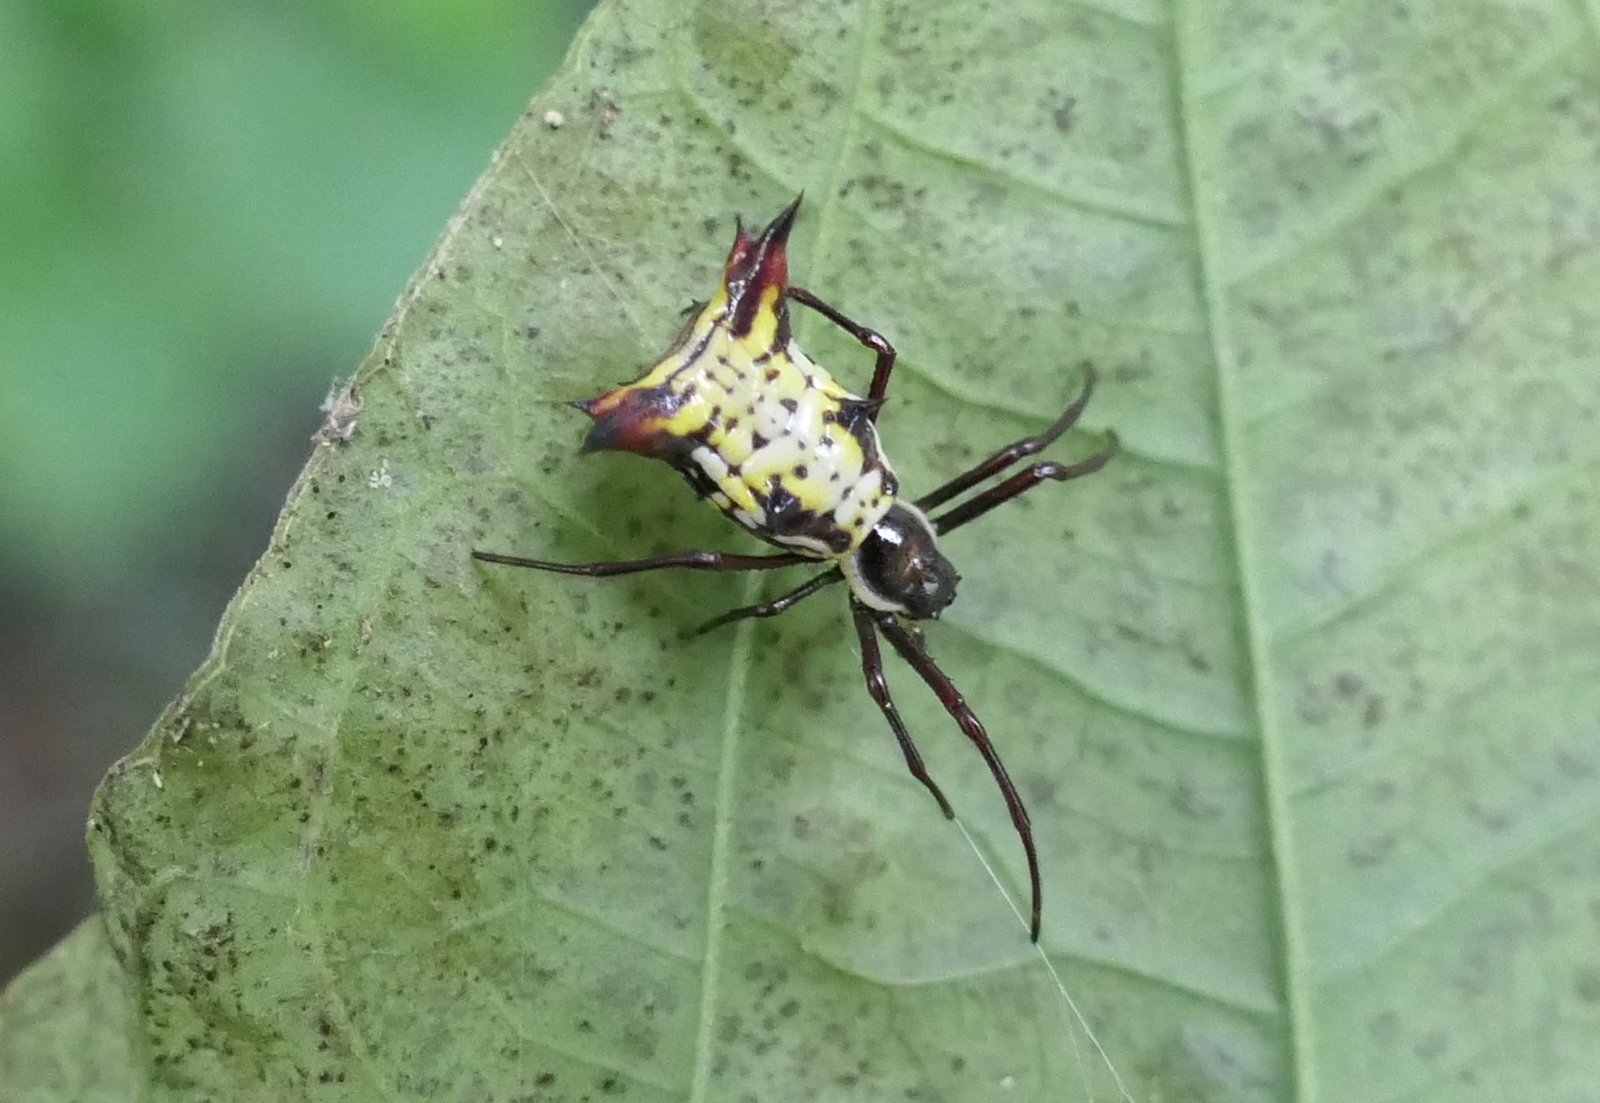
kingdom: Animalia
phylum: Arthropoda
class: Arachnida
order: Araneae
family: Araneidae
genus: Micrathena
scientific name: Micrathena fissispina
